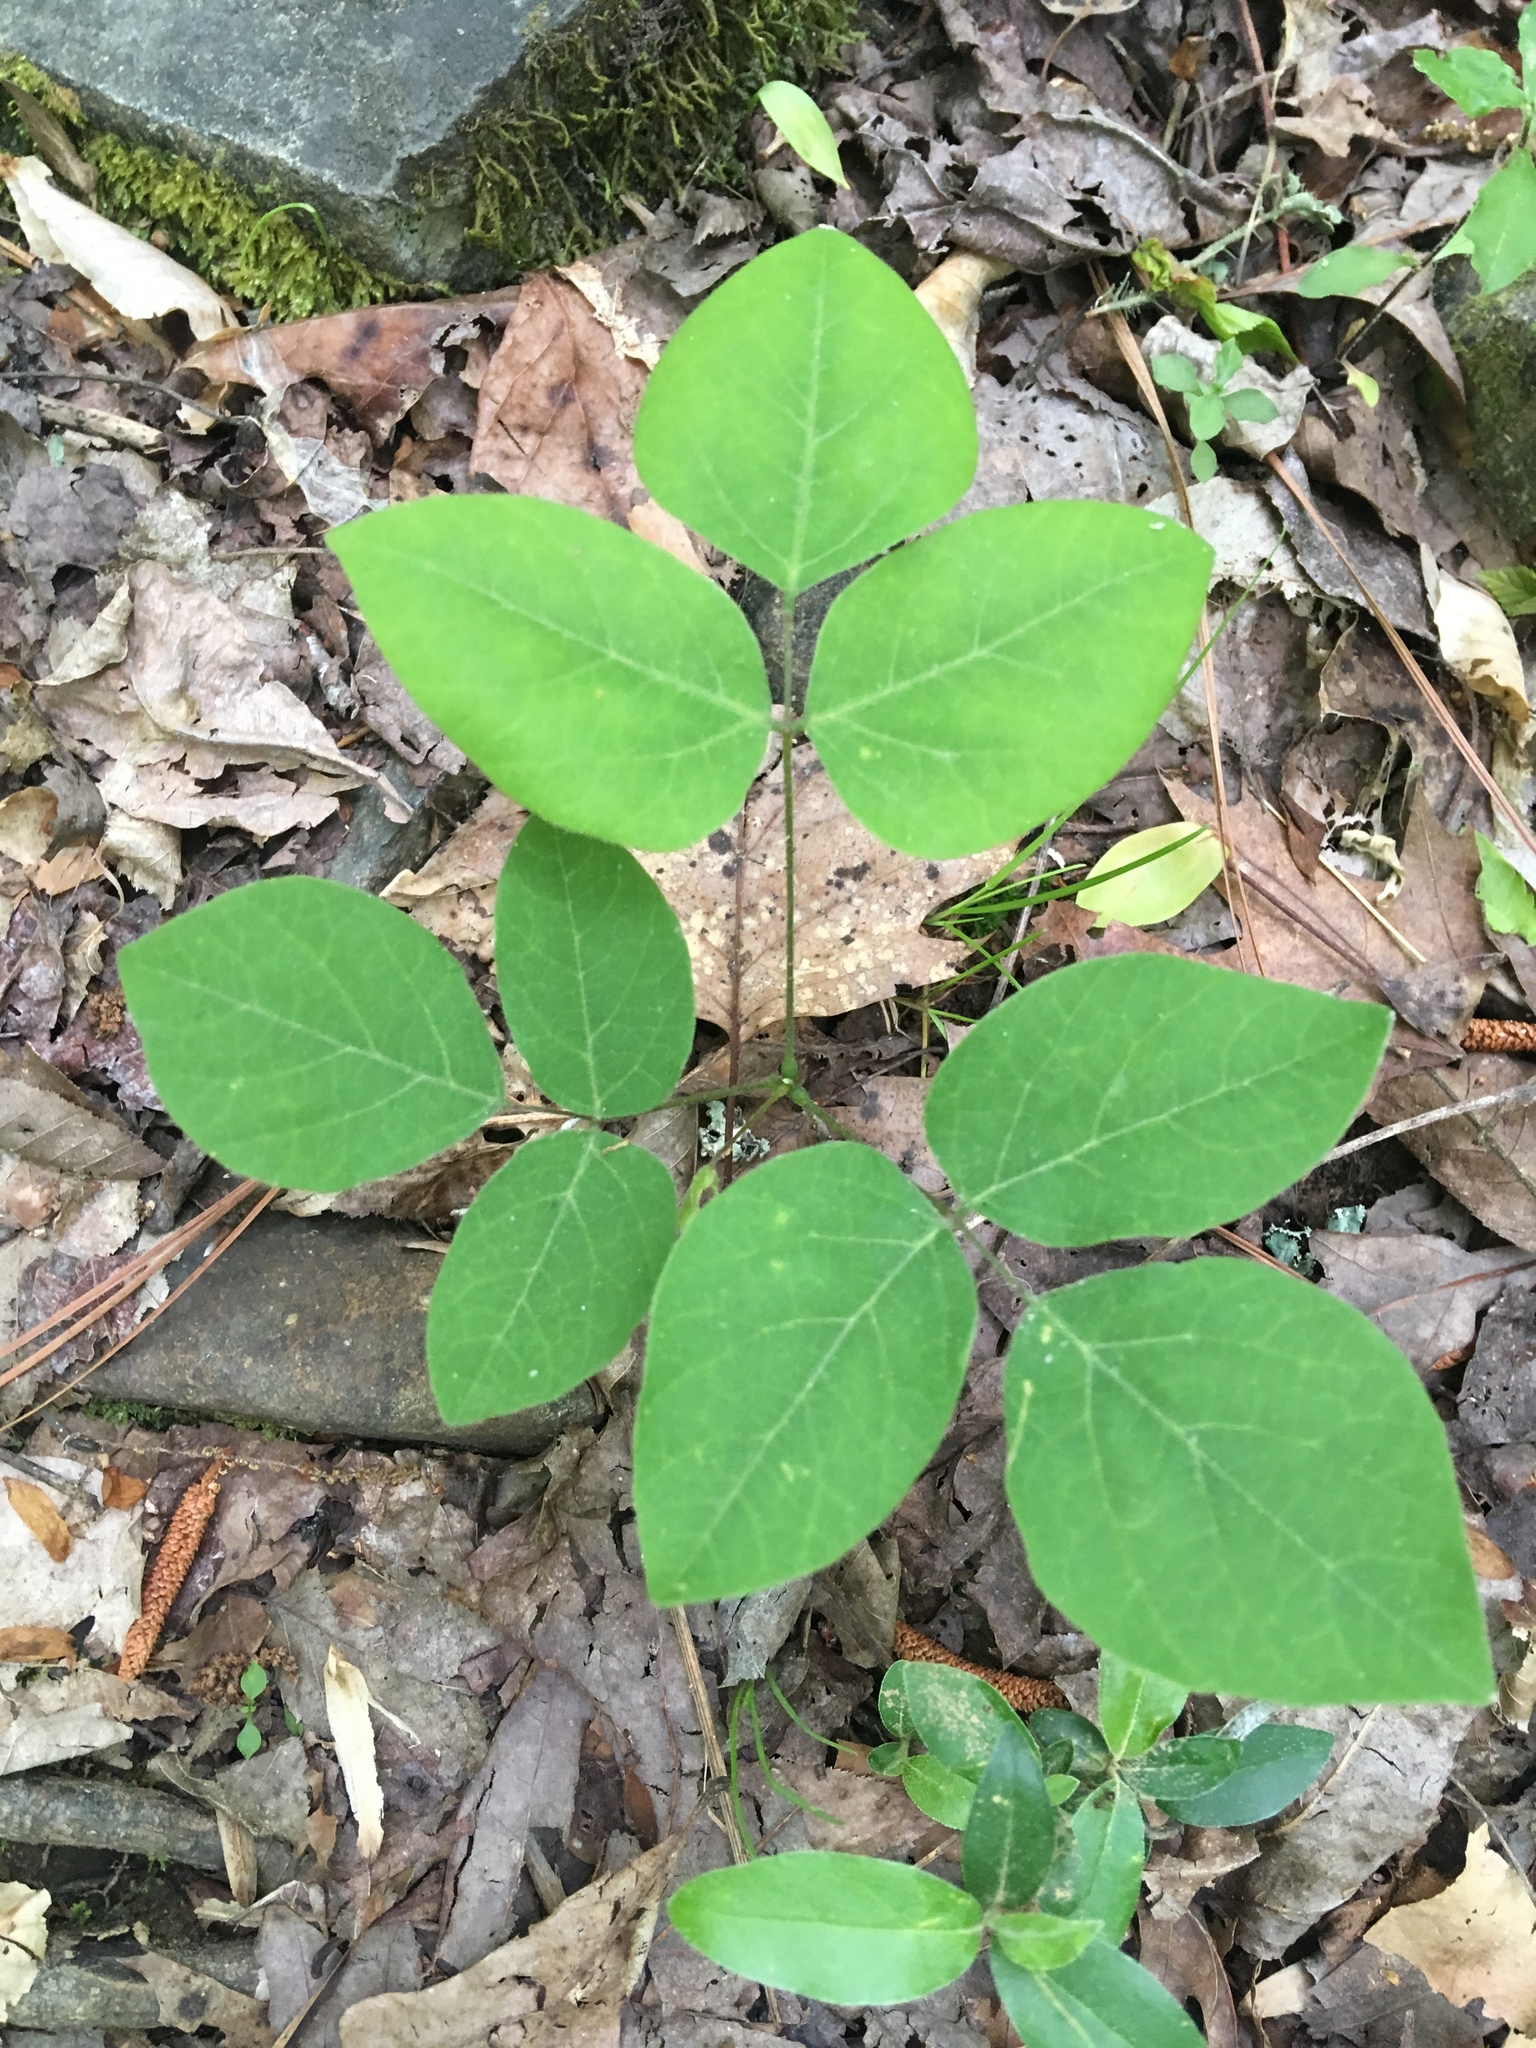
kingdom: Plantae
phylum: Tracheophyta
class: Magnoliopsida
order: Fabales
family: Fabaceae
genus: Hylodesmum
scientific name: Hylodesmum nudiflorum
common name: Bare-stemmed tick-trefoil
